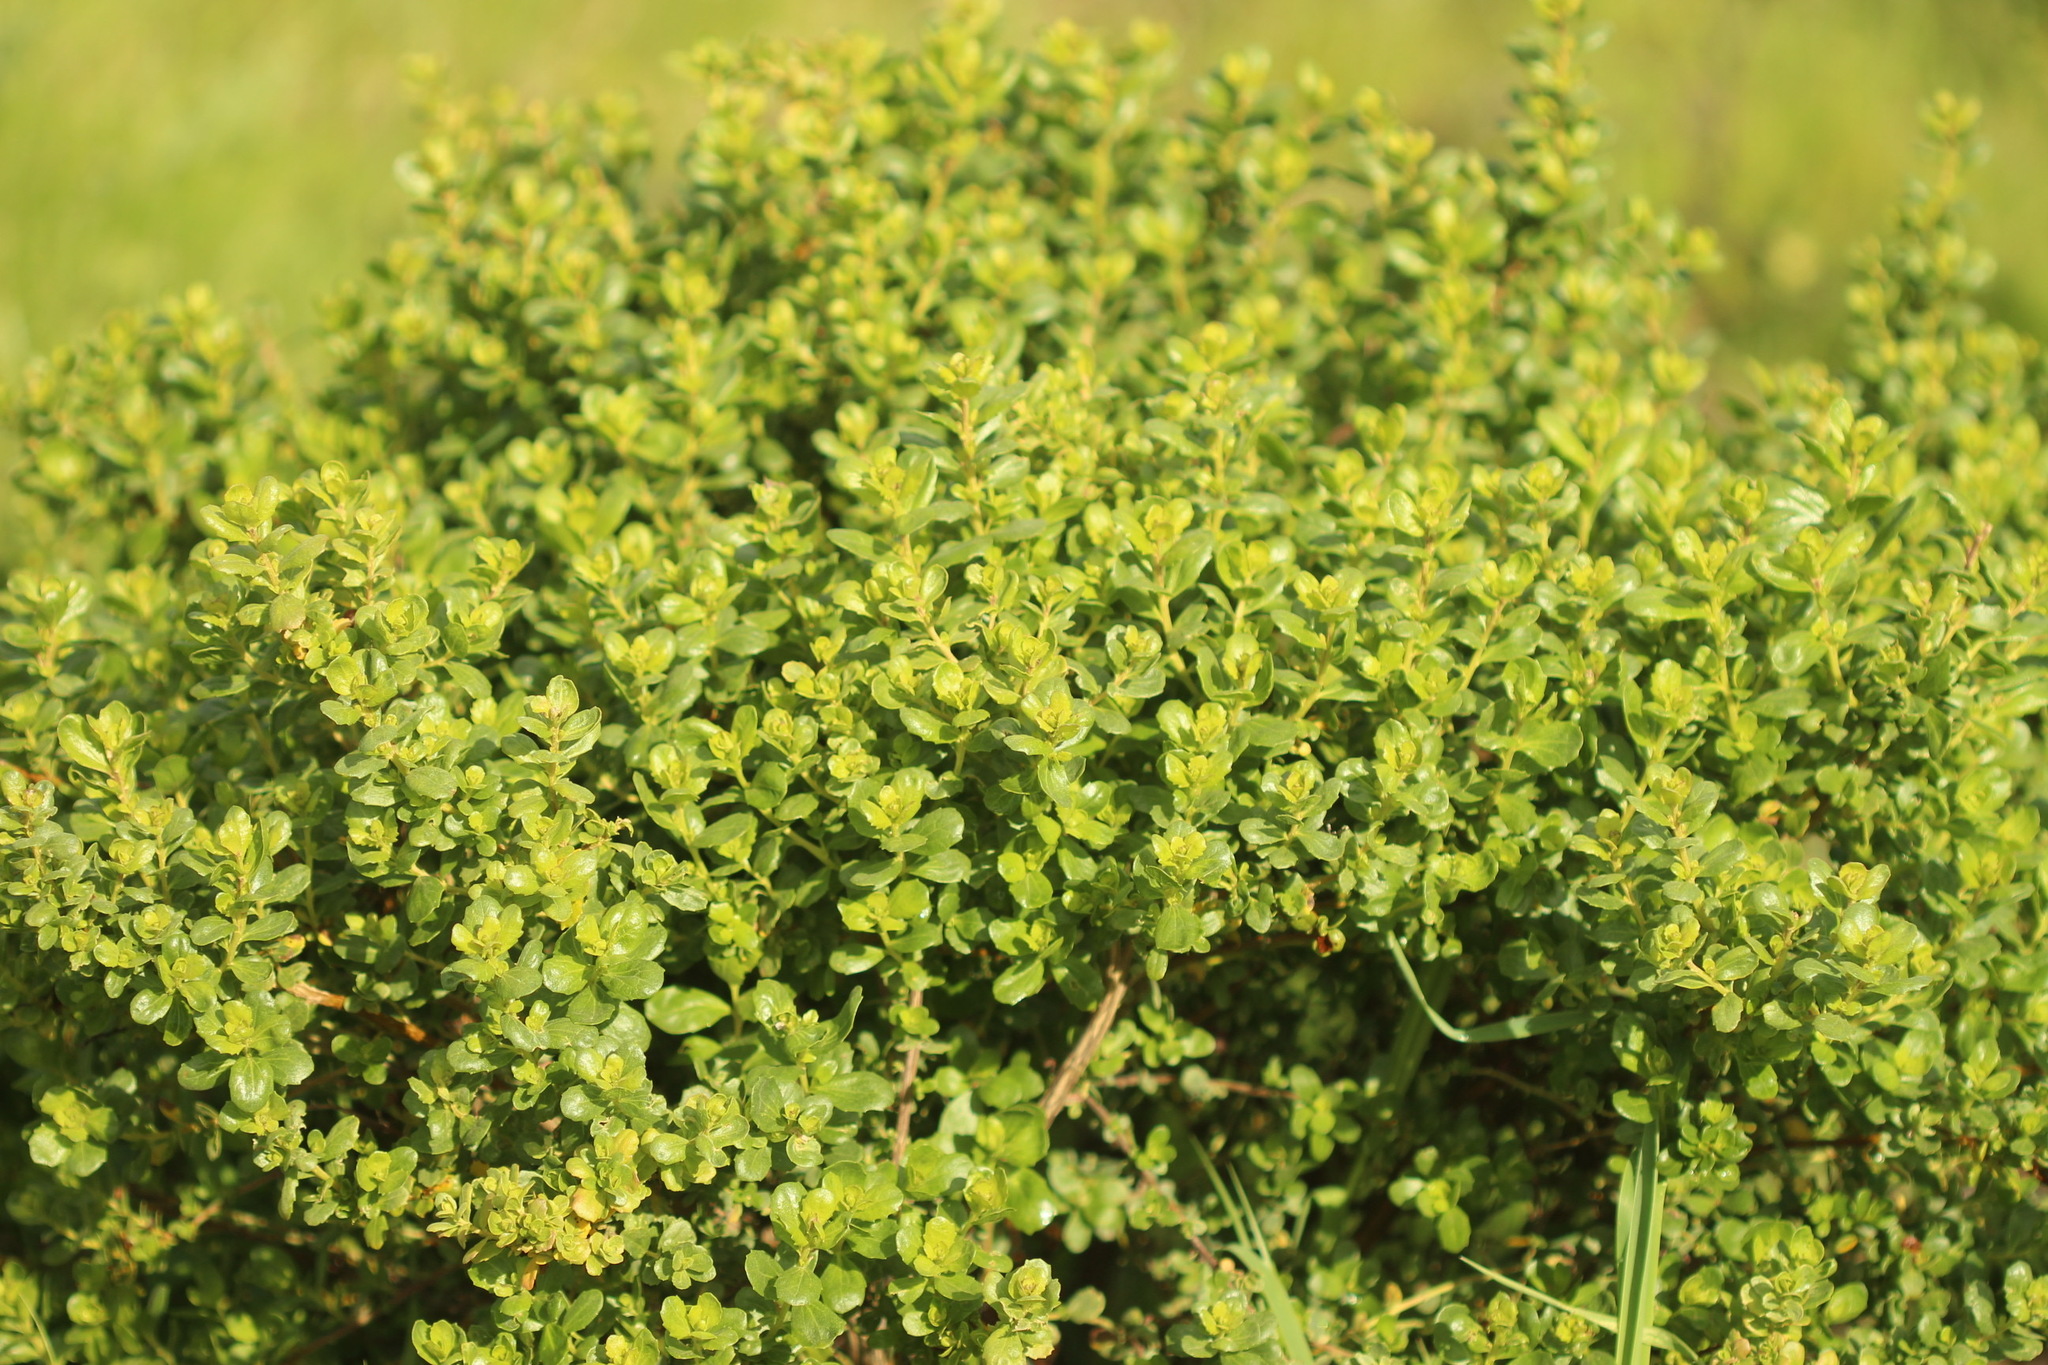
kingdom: Plantae
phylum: Tracheophyta
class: Magnoliopsida
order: Asterales
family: Asteraceae
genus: Baccharis
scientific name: Baccharis pilularis
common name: Coyotebrush
